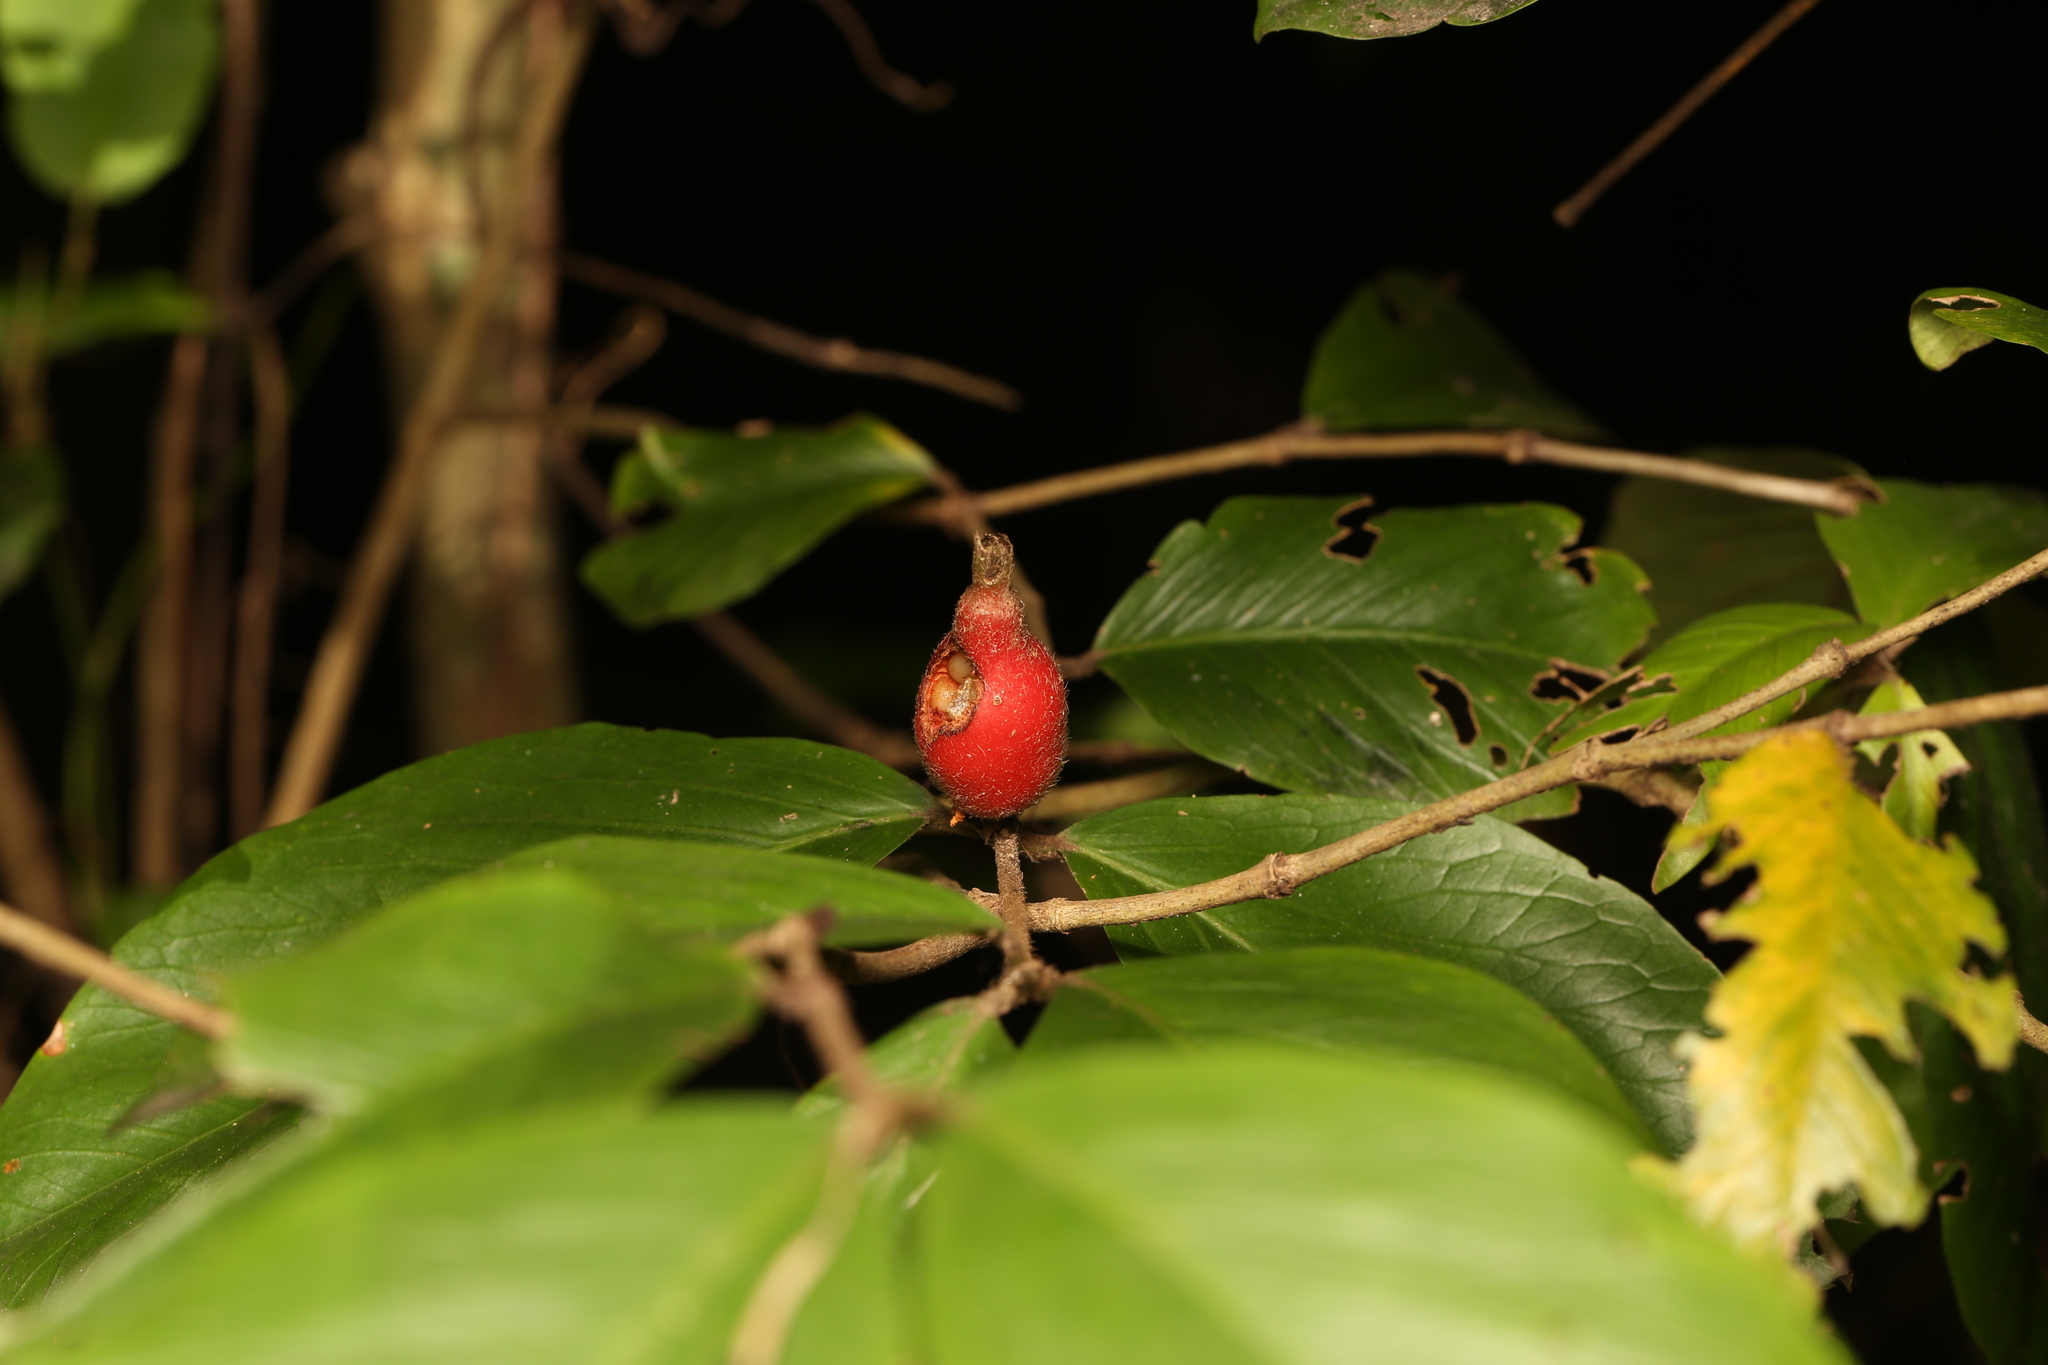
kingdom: Plantae
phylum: Tracheophyta
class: Magnoliopsida
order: Gentianales
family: Rubiaceae
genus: Atractocarpus
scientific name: Atractocarpus chartaceus
